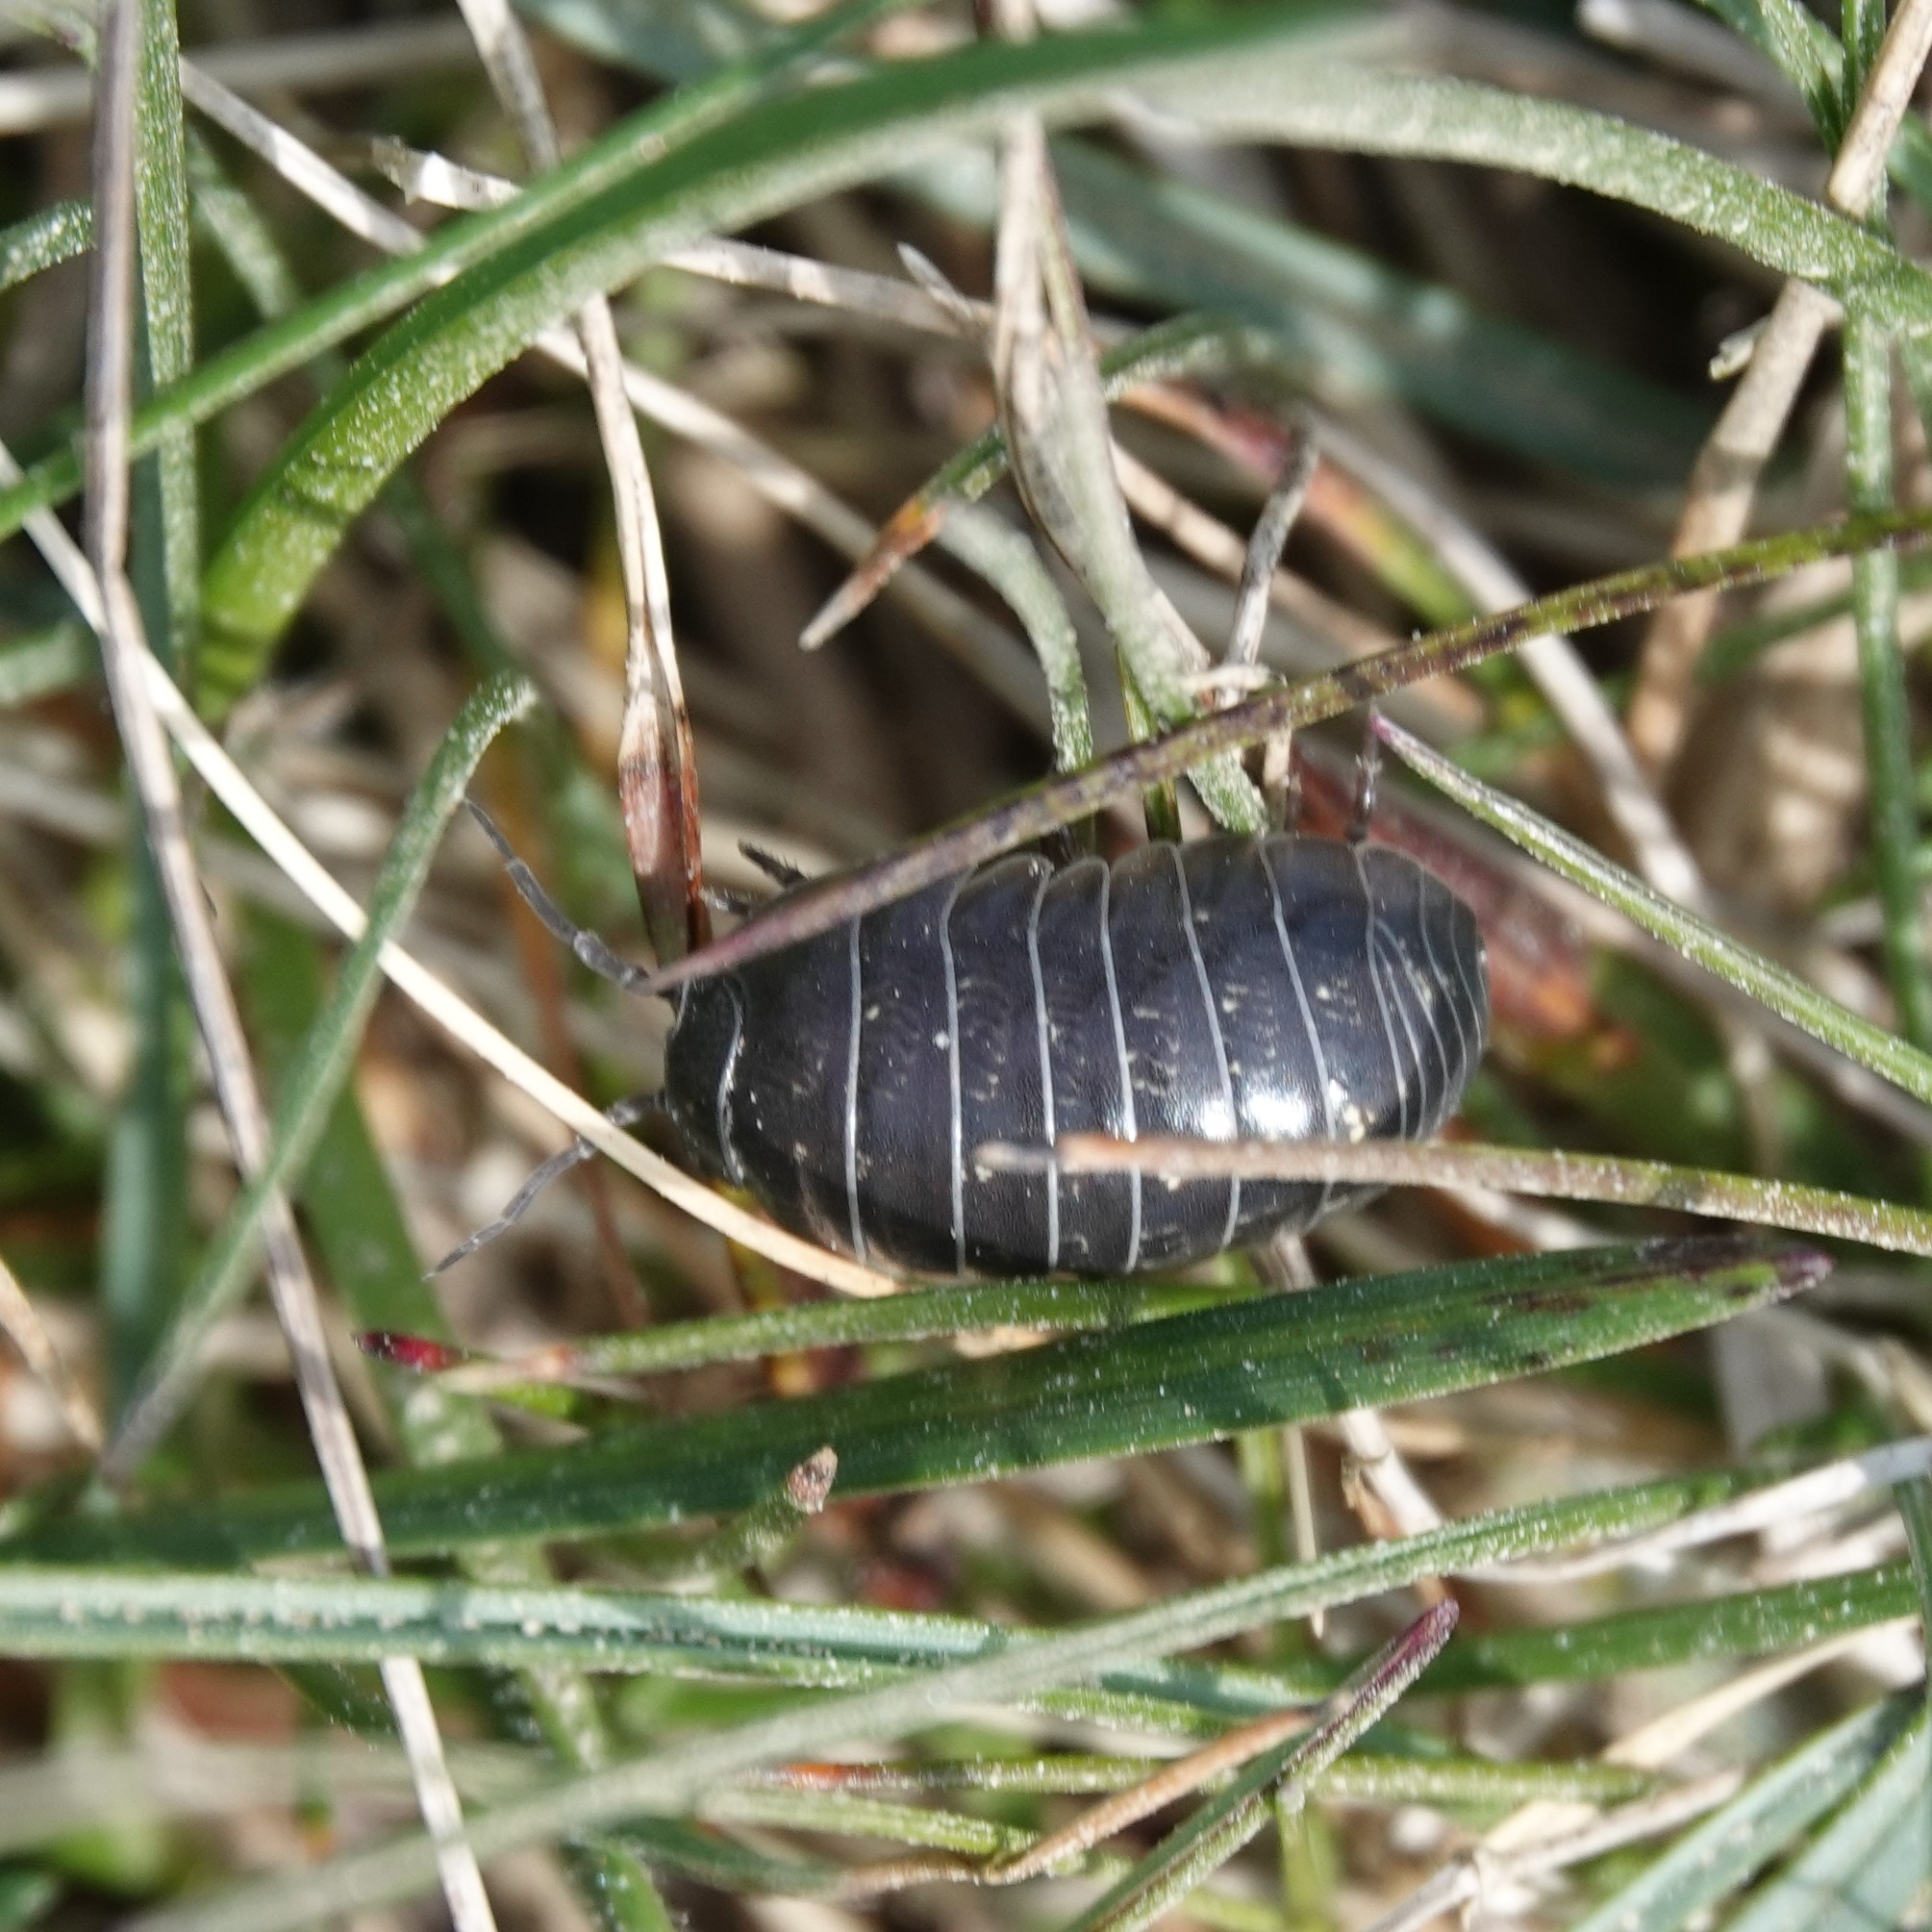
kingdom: Animalia
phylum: Arthropoda
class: Malacostraca
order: Isopoda
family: Armadillidiidae
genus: Armadillidium
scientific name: Armadillidium vulgare
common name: Common pill woodlouse
